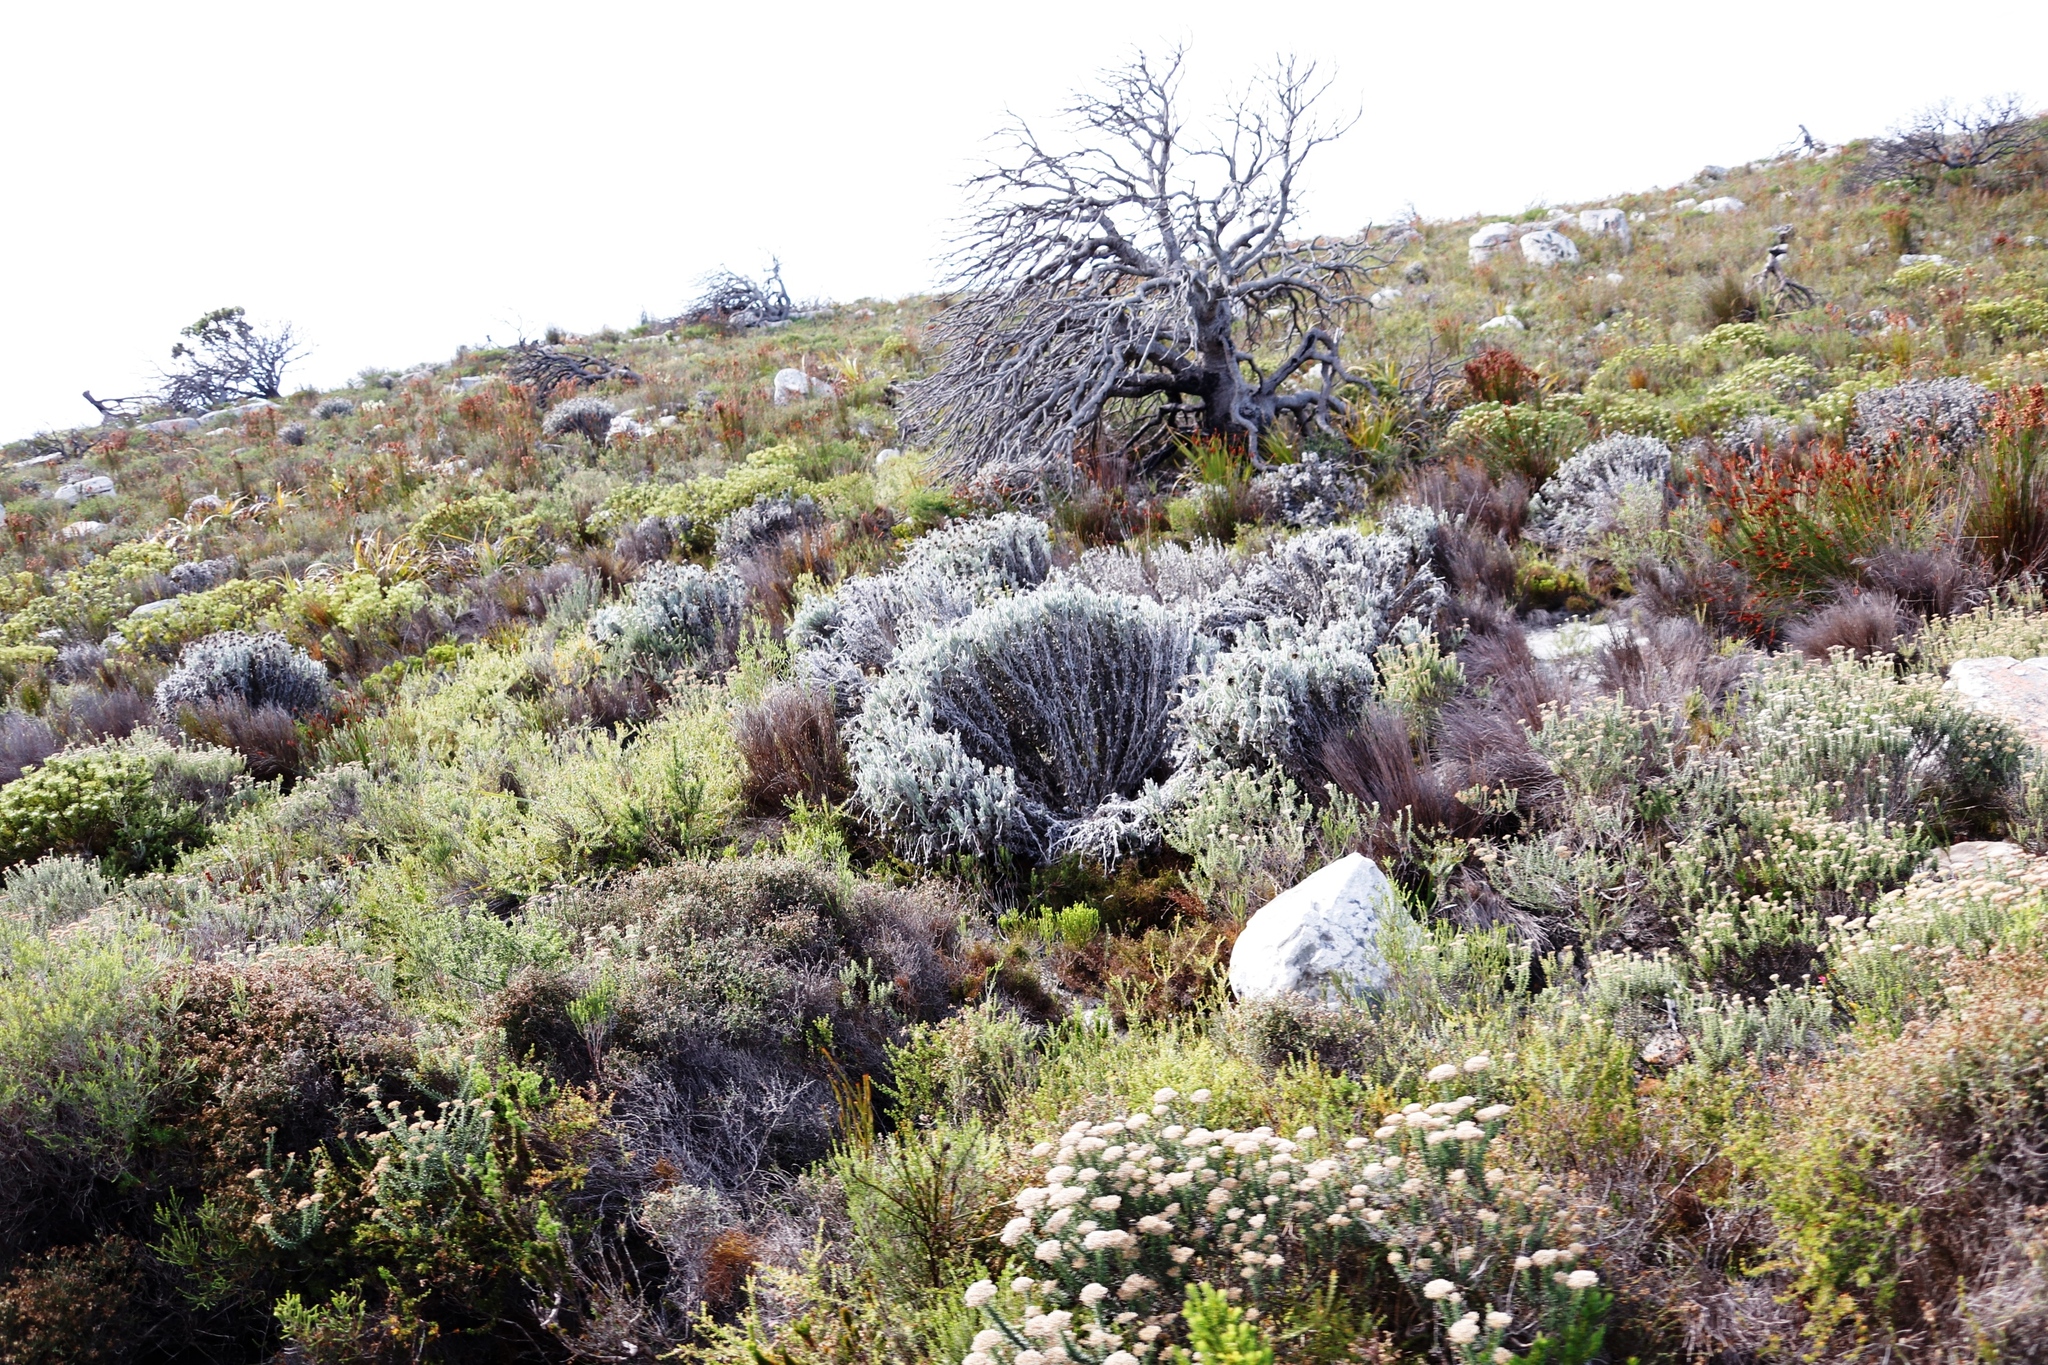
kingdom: Plantae
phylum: Tracheophyta
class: Magnoliopsida
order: Asterales
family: Asteraceae
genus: Syncarpha
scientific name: Syncarpha vestita
